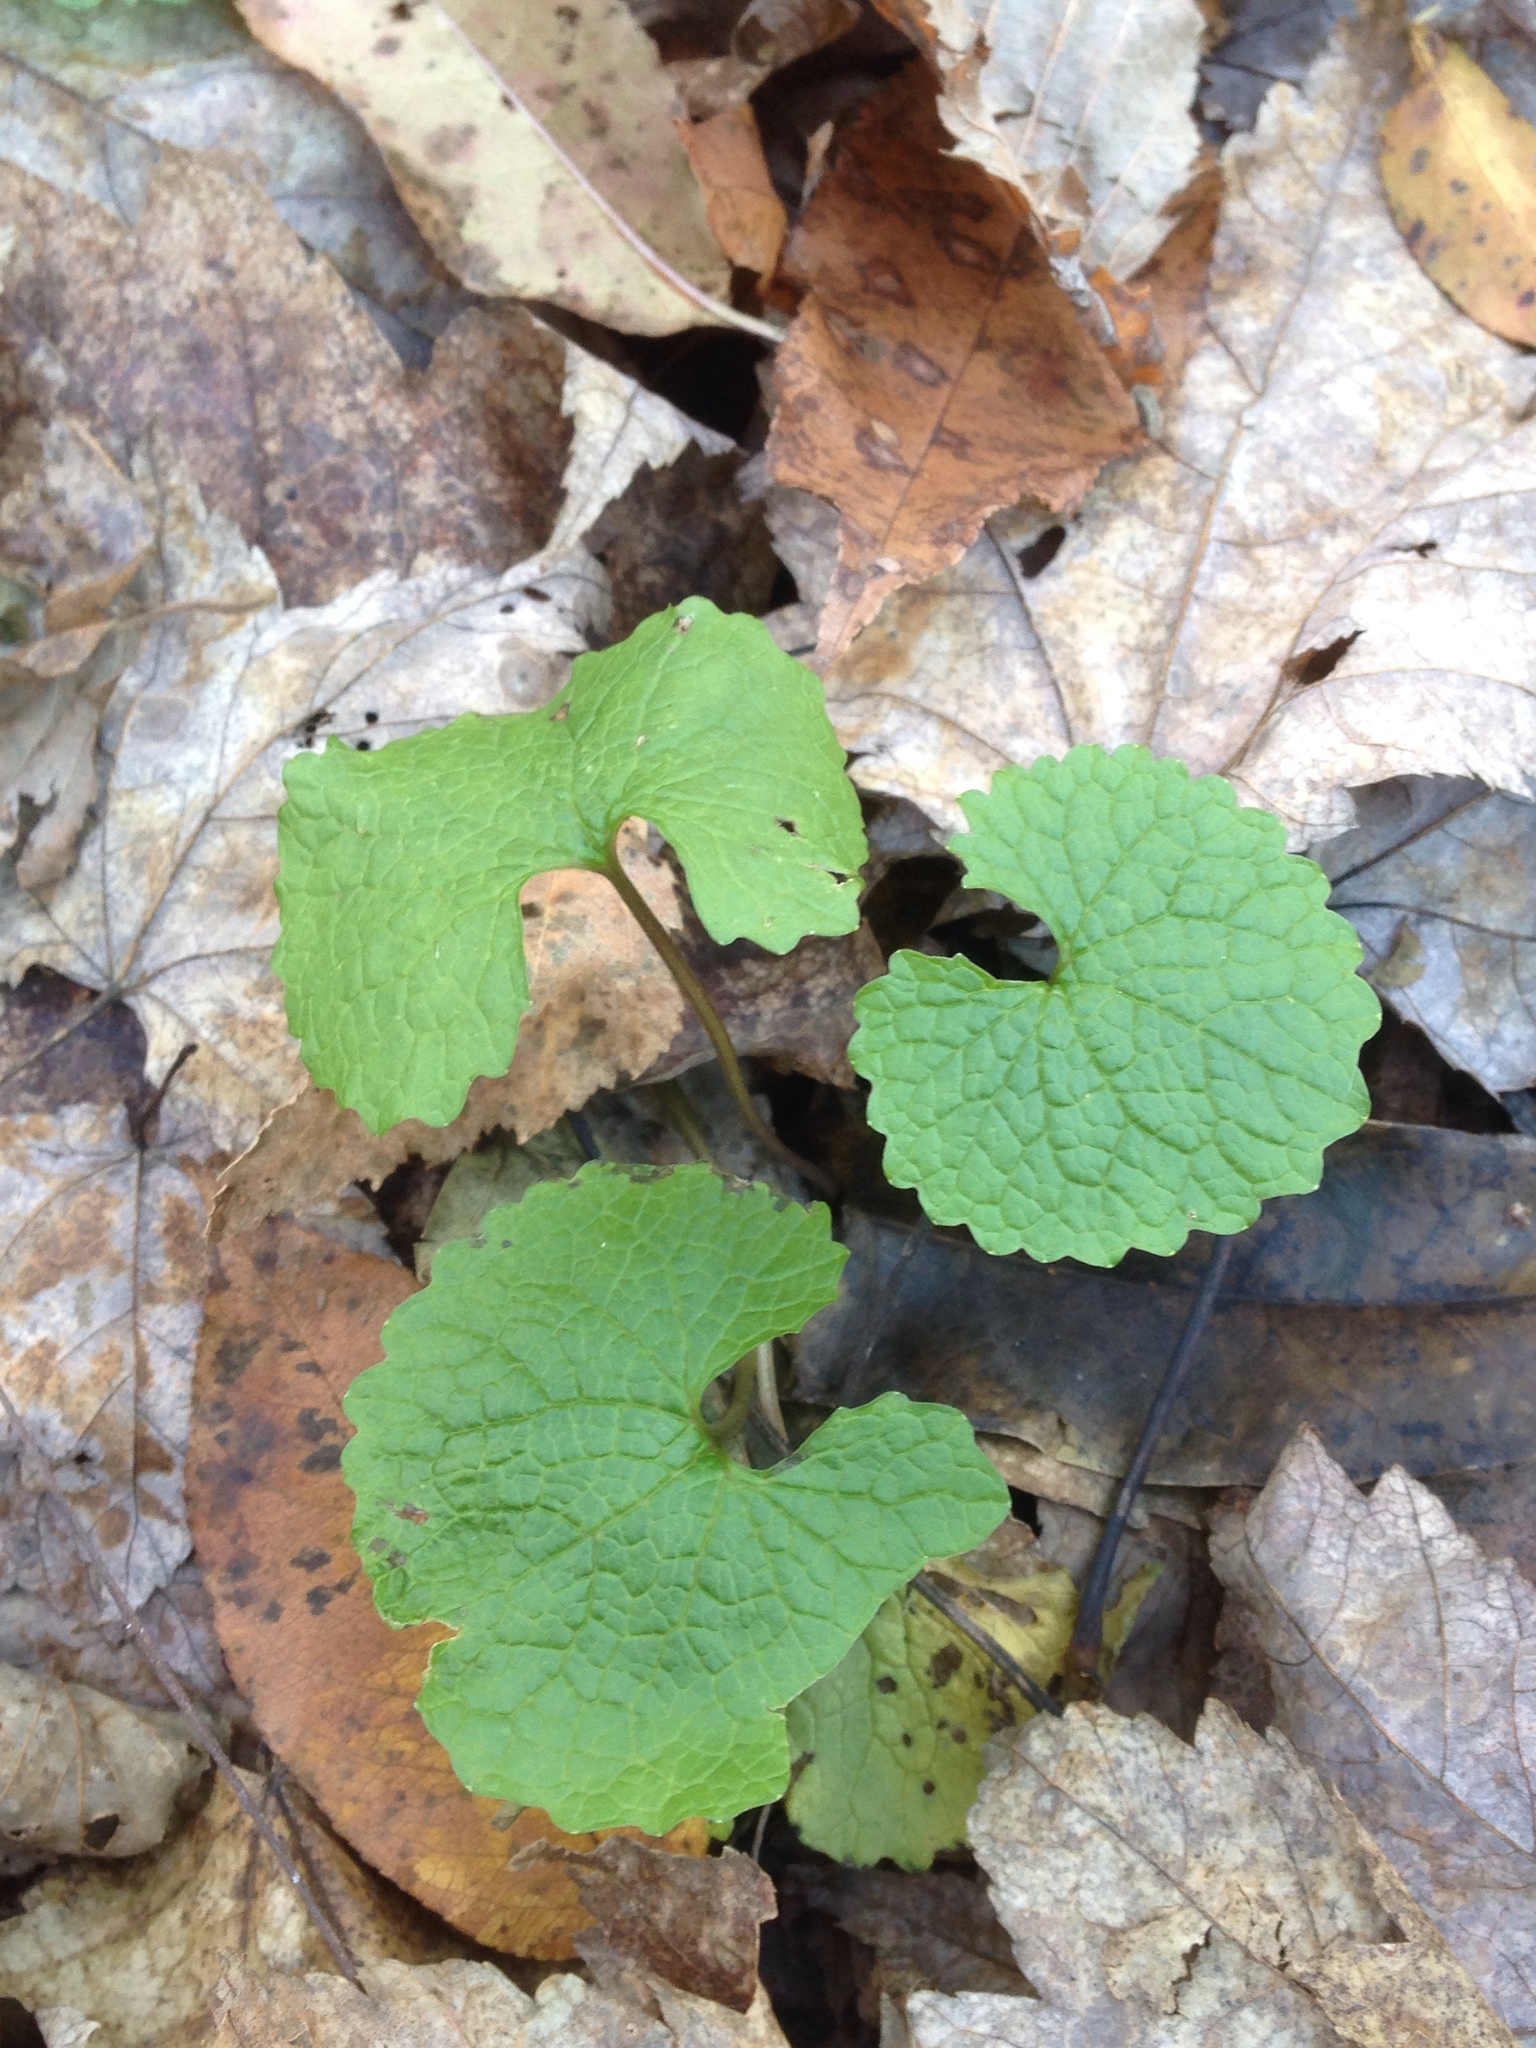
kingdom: Plantae
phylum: Tracheophyta
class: Magnoliopsida
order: Brassicales
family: Brassicaceae
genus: Alliaria
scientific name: Alliaria petiolata
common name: Garlic mustard
